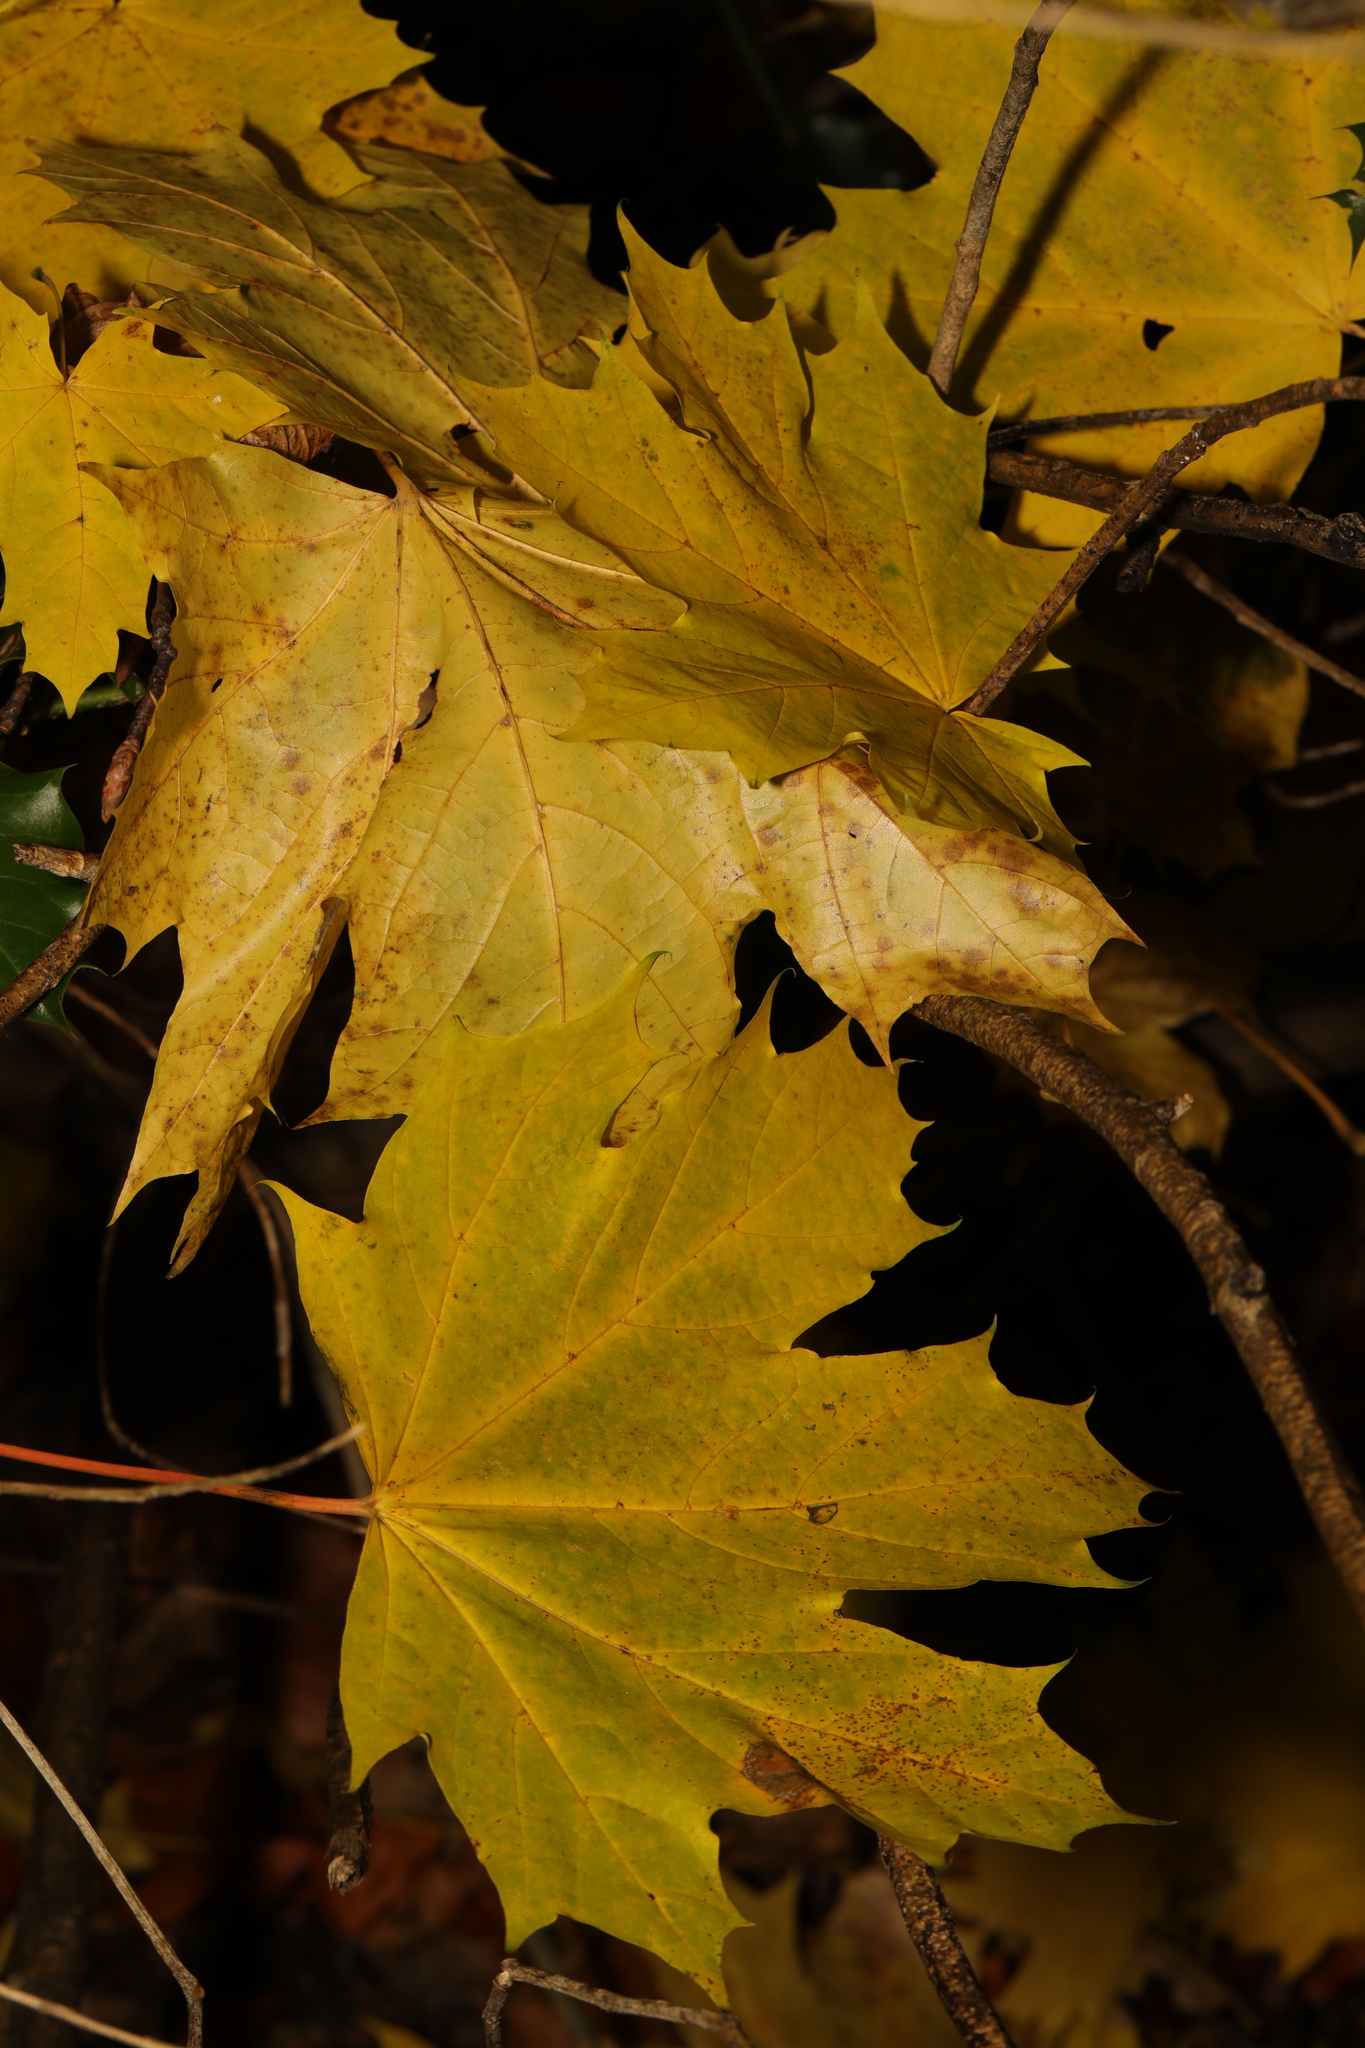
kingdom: Plantae
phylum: Tracheophyta
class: Magnoliopsida
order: Sapindales
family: Sapindaceae
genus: Acer
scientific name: Acer platanoides
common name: Norway maple
